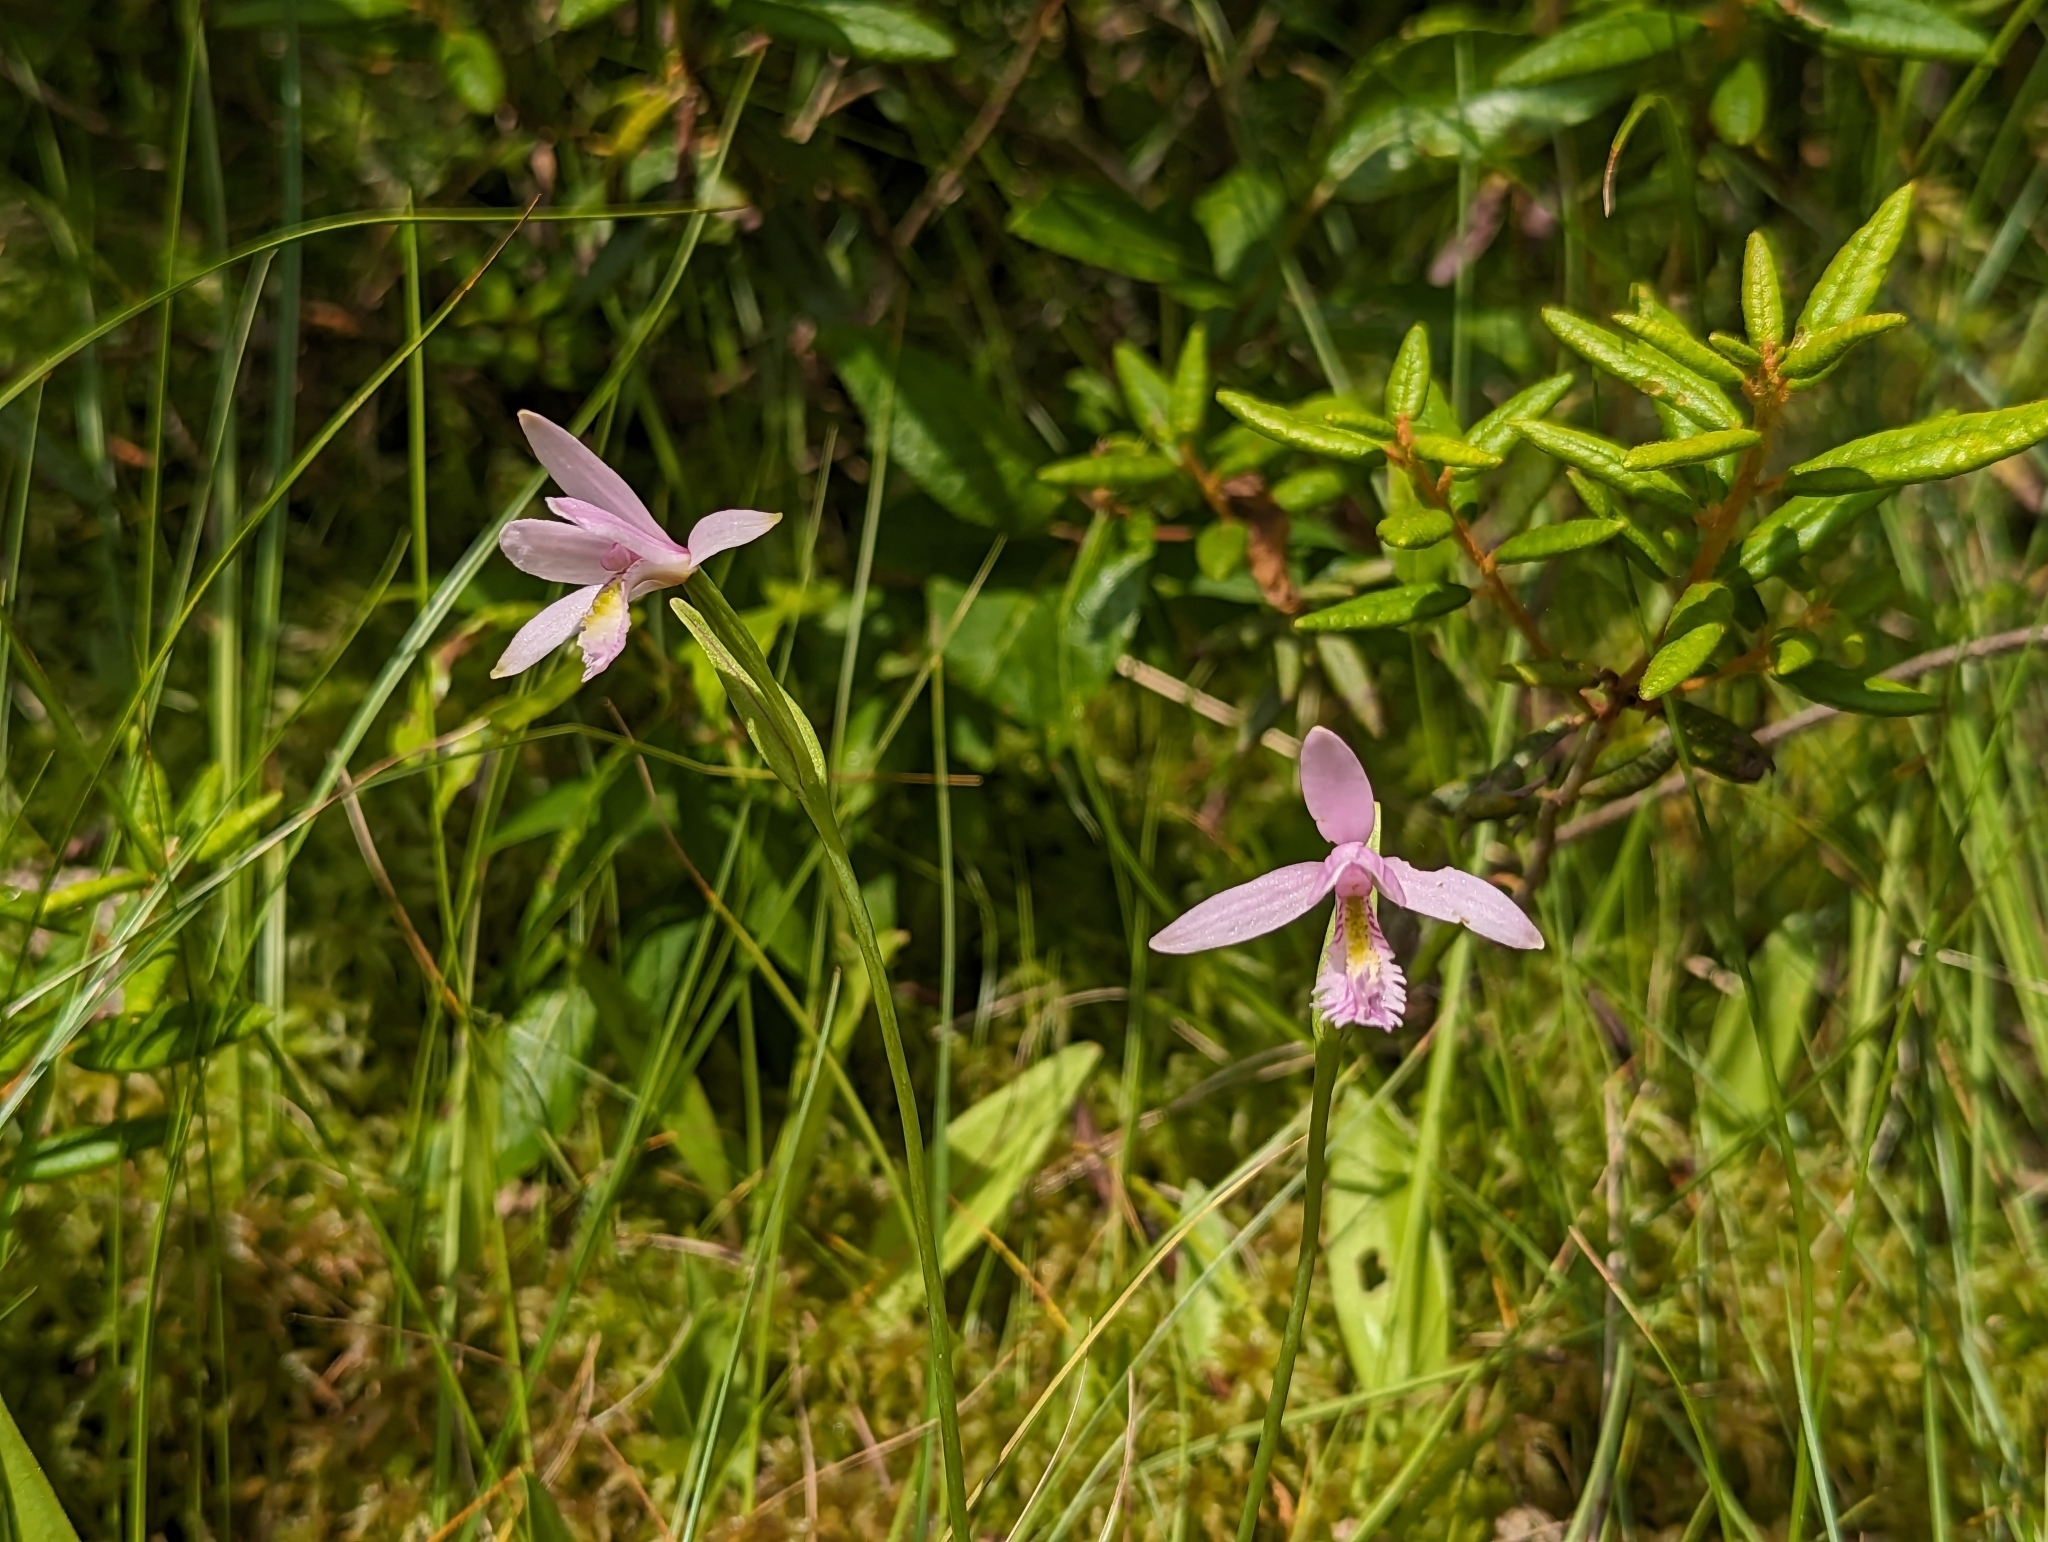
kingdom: Plantae
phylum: Tracheophyta
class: Liliopsida
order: Asparagales
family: Orchidaceae
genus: Pogonia
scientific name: Pogonia ophioglossoides
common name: Rose pogonia
